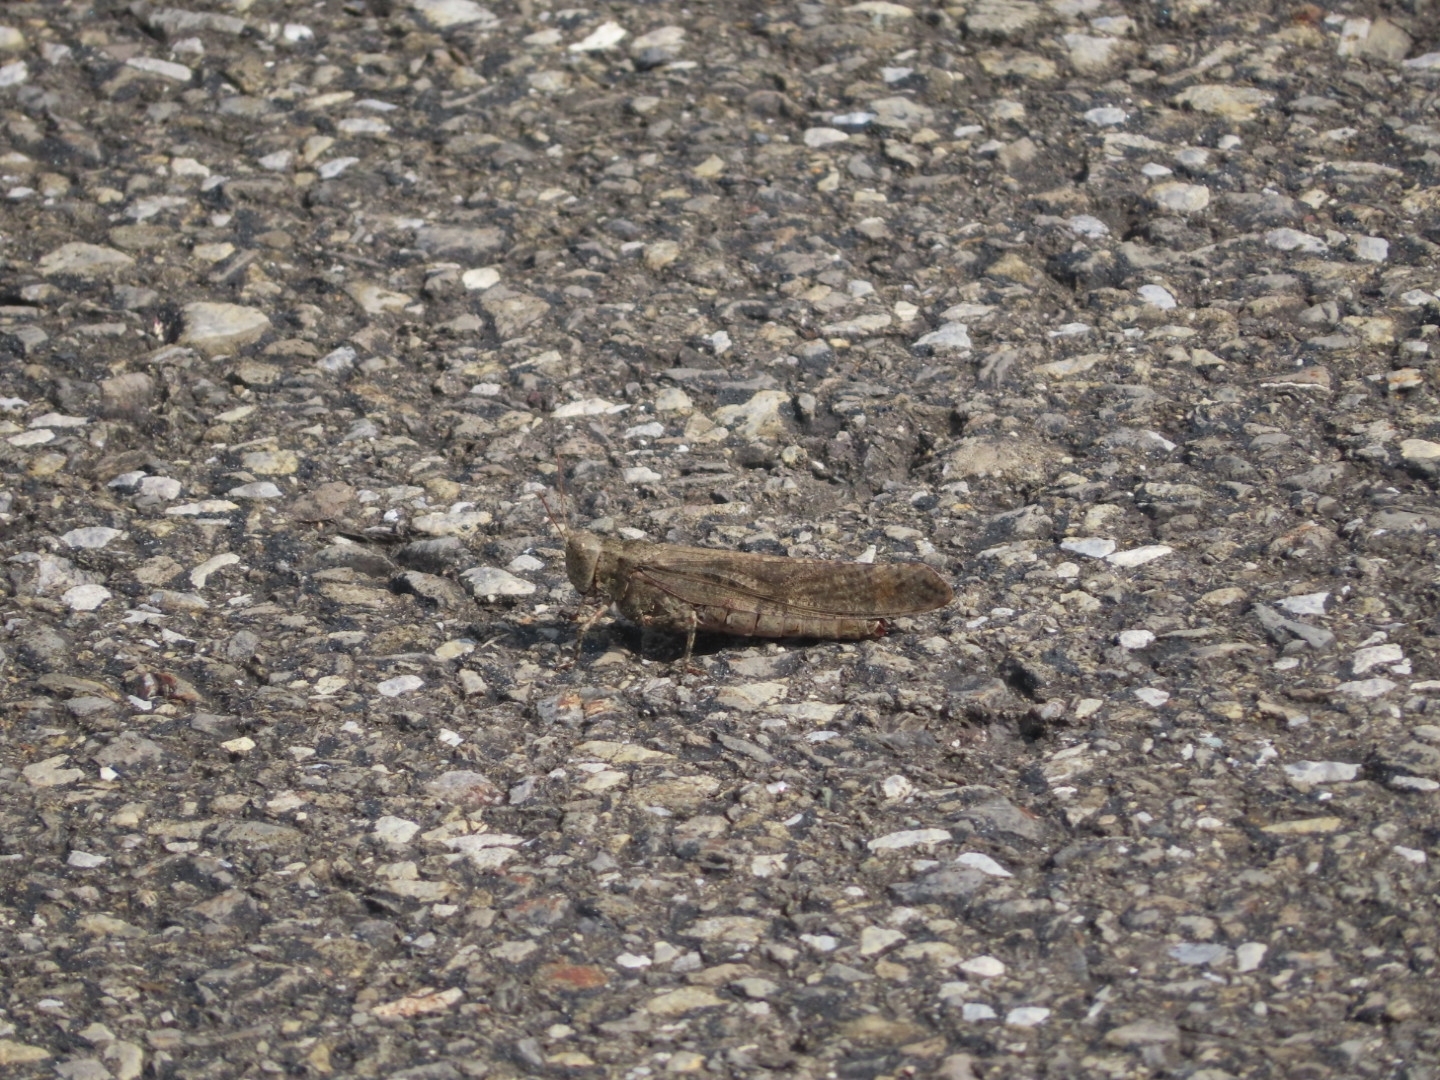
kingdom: Animalia
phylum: Arthropoda
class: Insecta
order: Orthoptera
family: Acrididae
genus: Dissosteira
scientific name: Dissosteira carolina
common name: Carolina grasshopper
